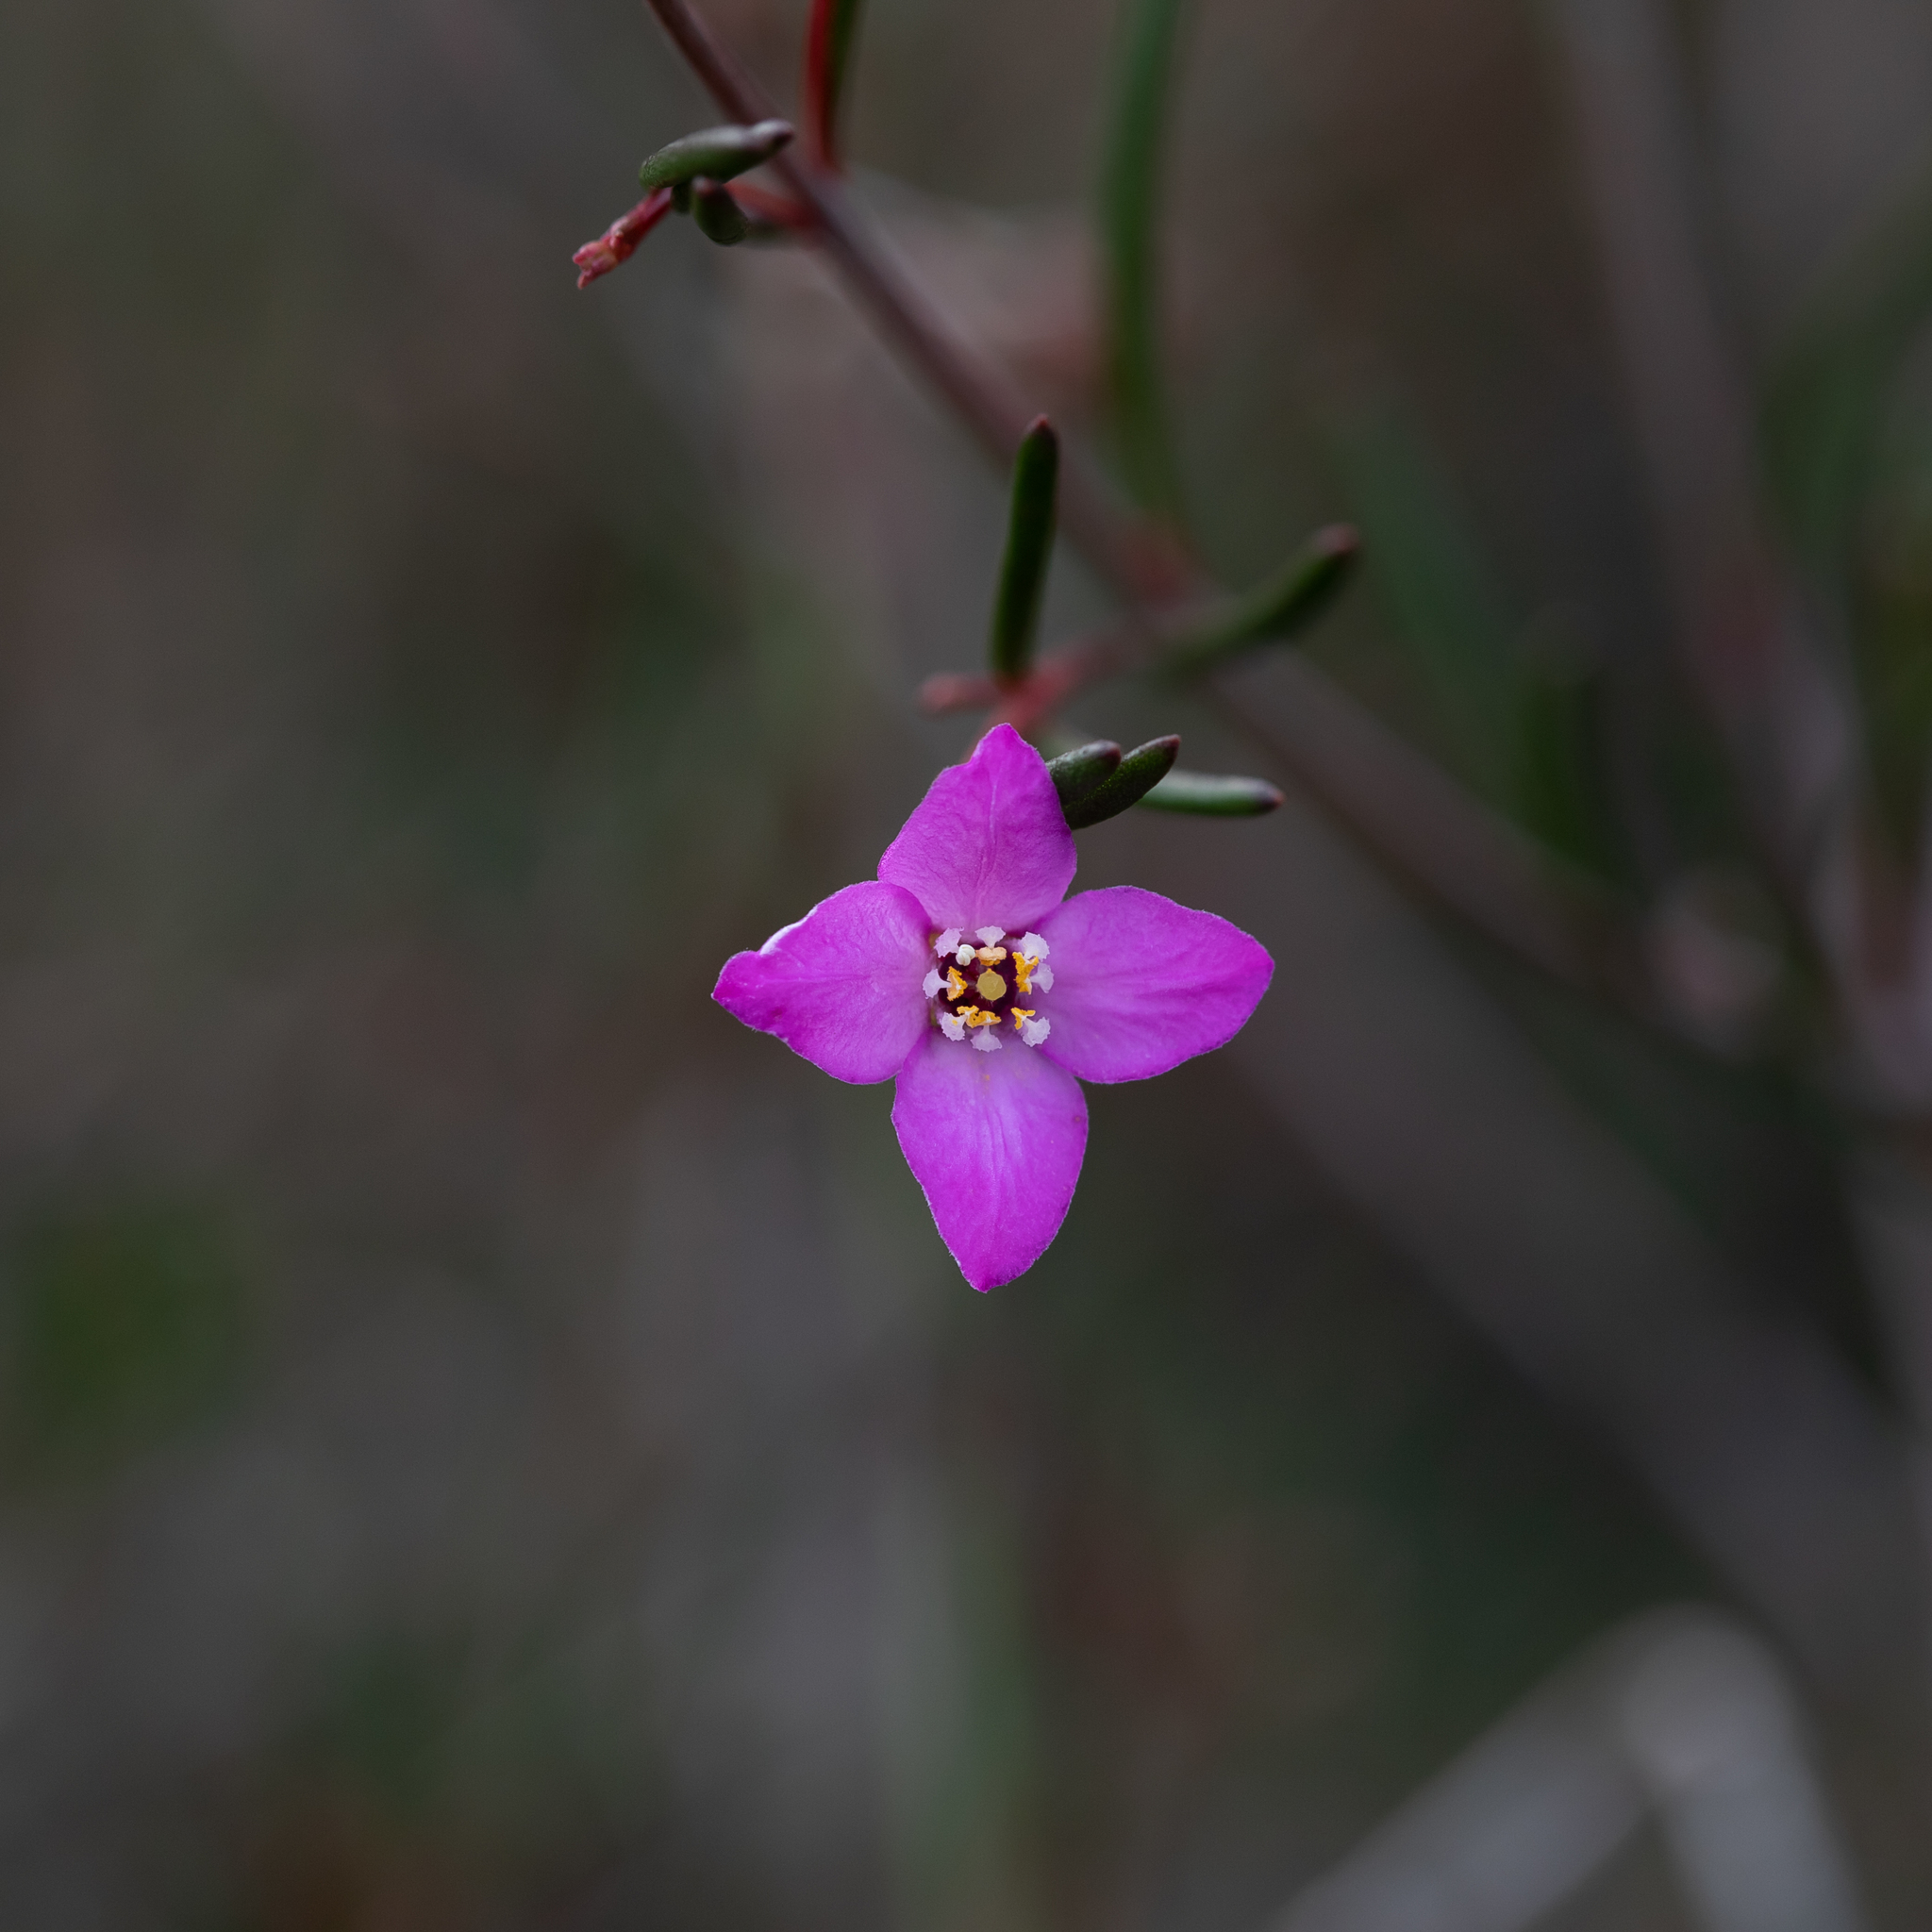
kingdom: Plantae
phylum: Tracheophyta
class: Magnoliopsida
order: Sapindales
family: Rutaceae
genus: Boronia
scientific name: Boronia filifolia
